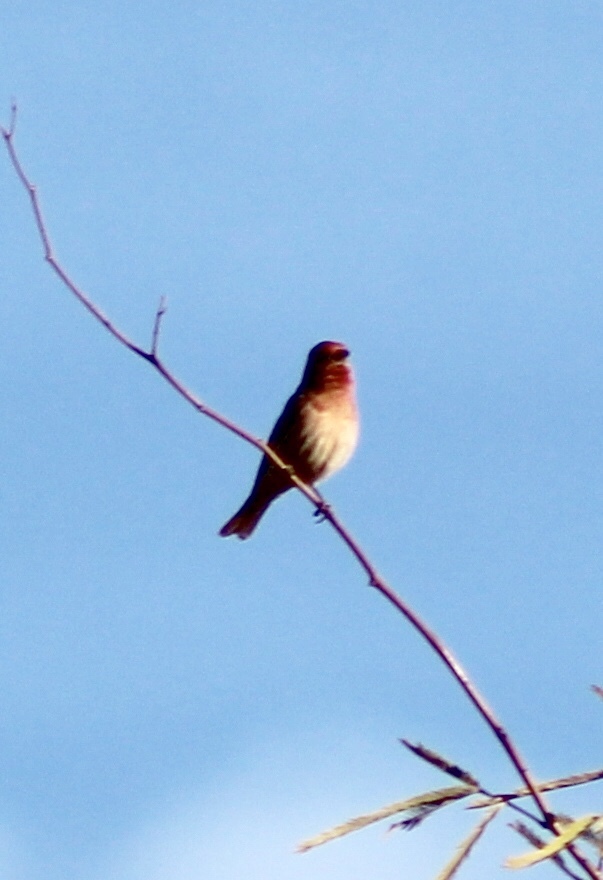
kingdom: Animalia
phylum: Chordata
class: Aves
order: Passeriformes
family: Fringillidae
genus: Haemorhous
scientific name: Haemorhous mexicanus
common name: House finch
